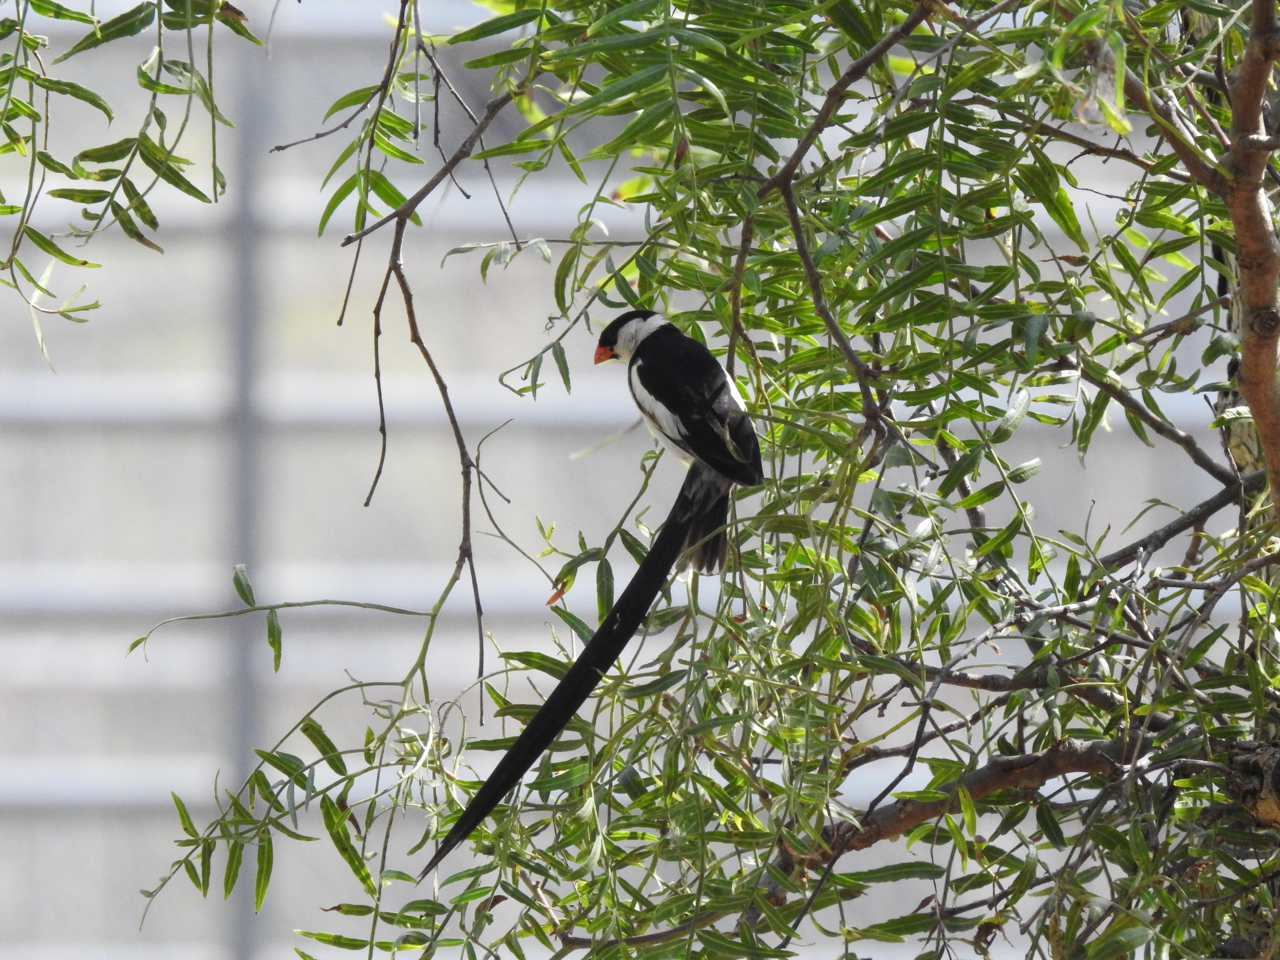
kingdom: Animalia
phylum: Chordata
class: Aves
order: Passeriformes
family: Viduidae
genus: Vidua
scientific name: Vidua macroura
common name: Pin-tailed whydah
